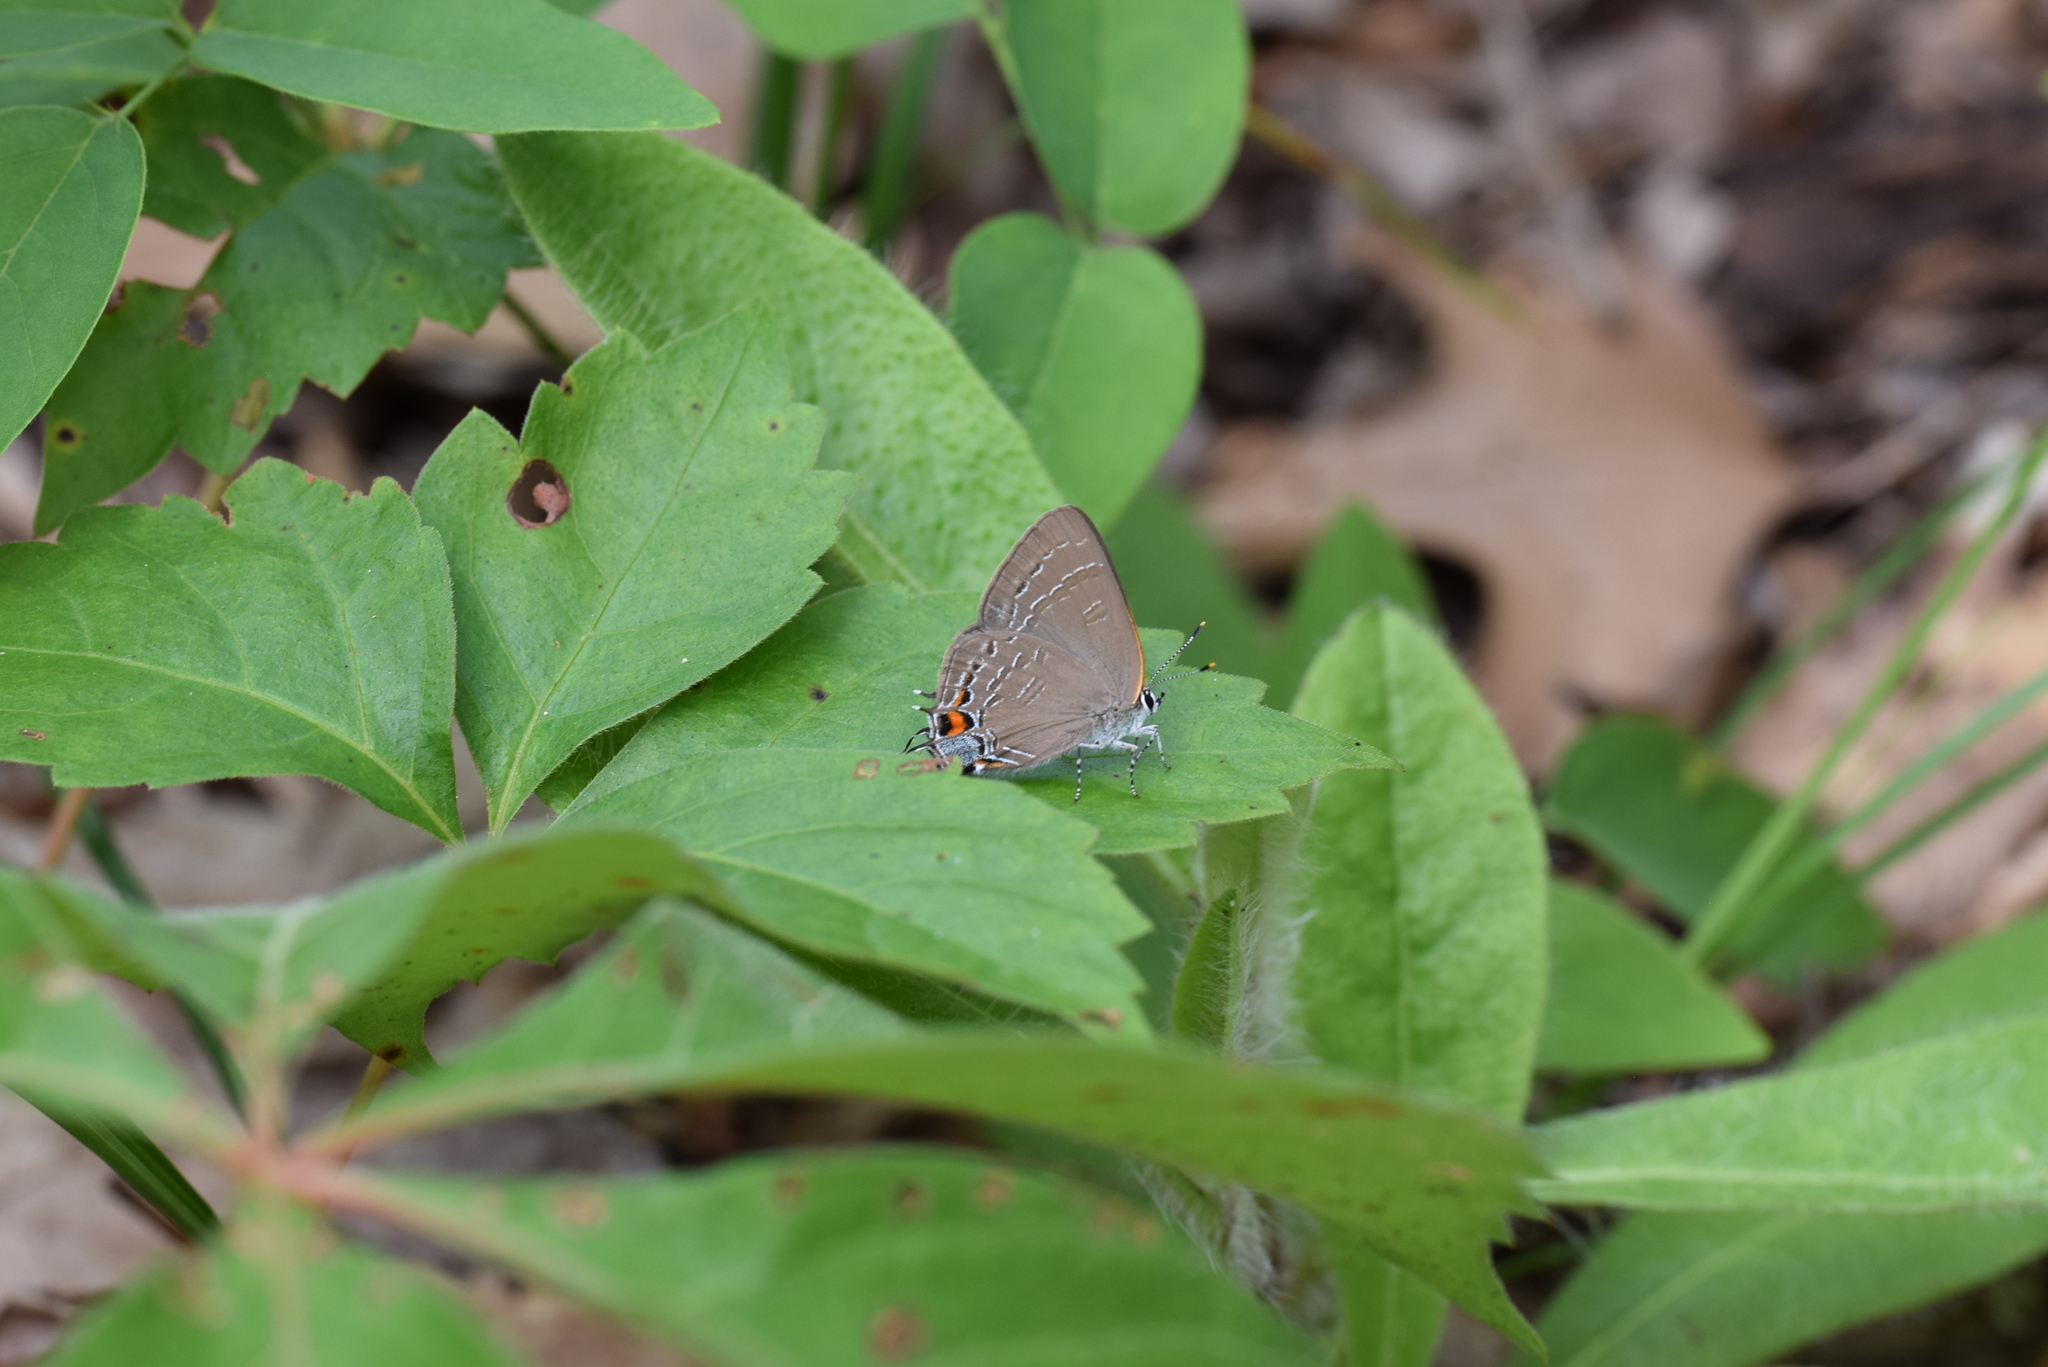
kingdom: Animalia
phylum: Arthropoda
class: Insecta
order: Lepidoptera
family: Lycaenidae
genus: Satyrium
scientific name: Satyrium calanus
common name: Banded hairstreak
